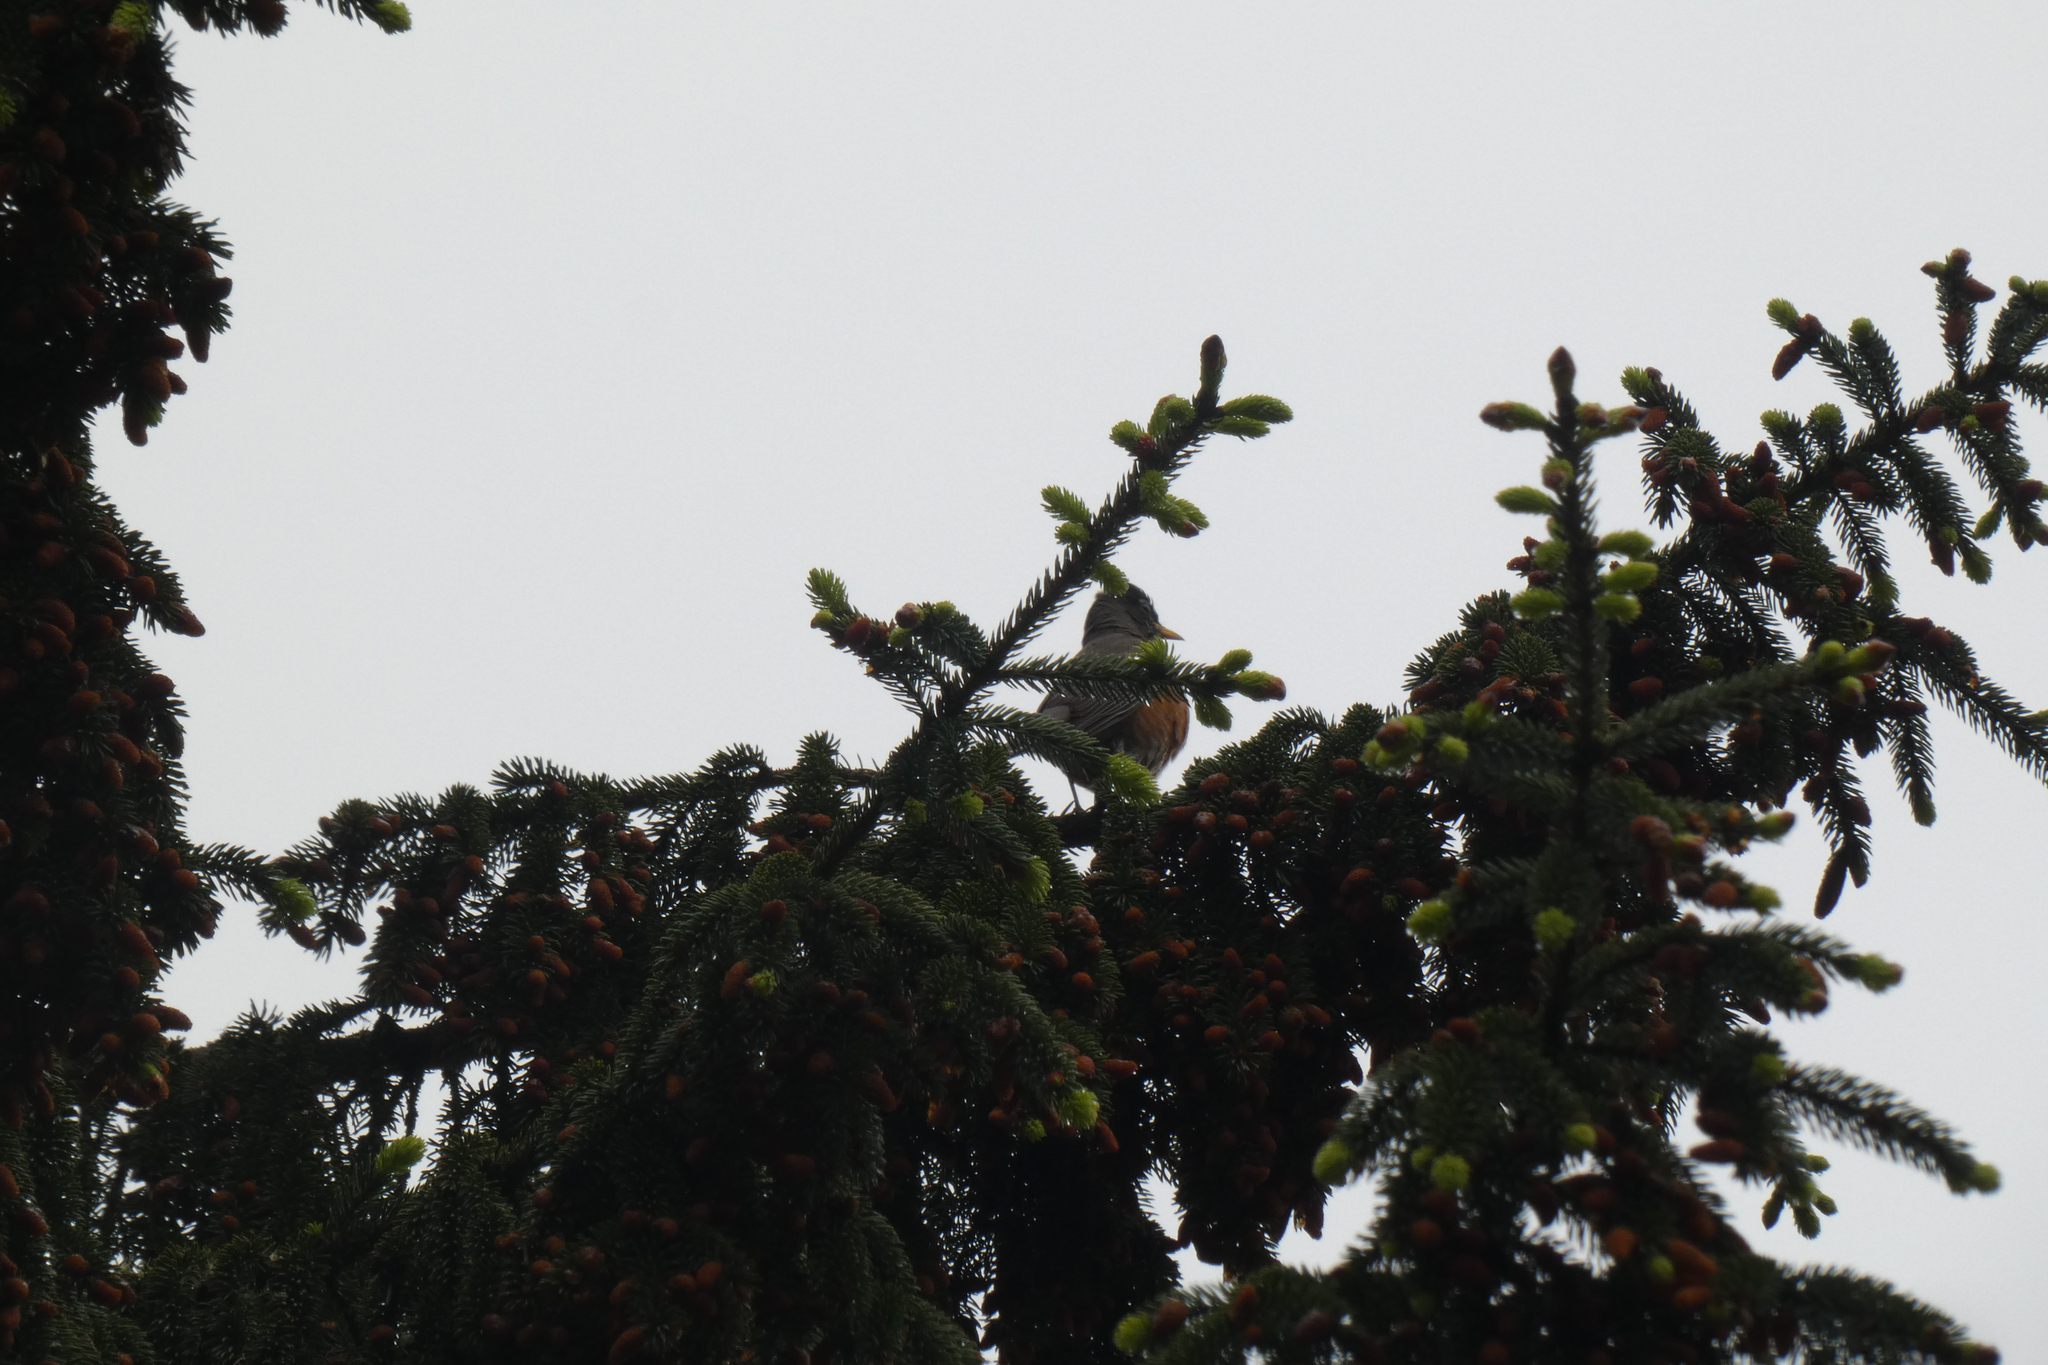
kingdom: Animalia
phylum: Chordata
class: Aves
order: Passeriformes
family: Turdidae
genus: Turdus
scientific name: Turdus migratorius
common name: American robin
